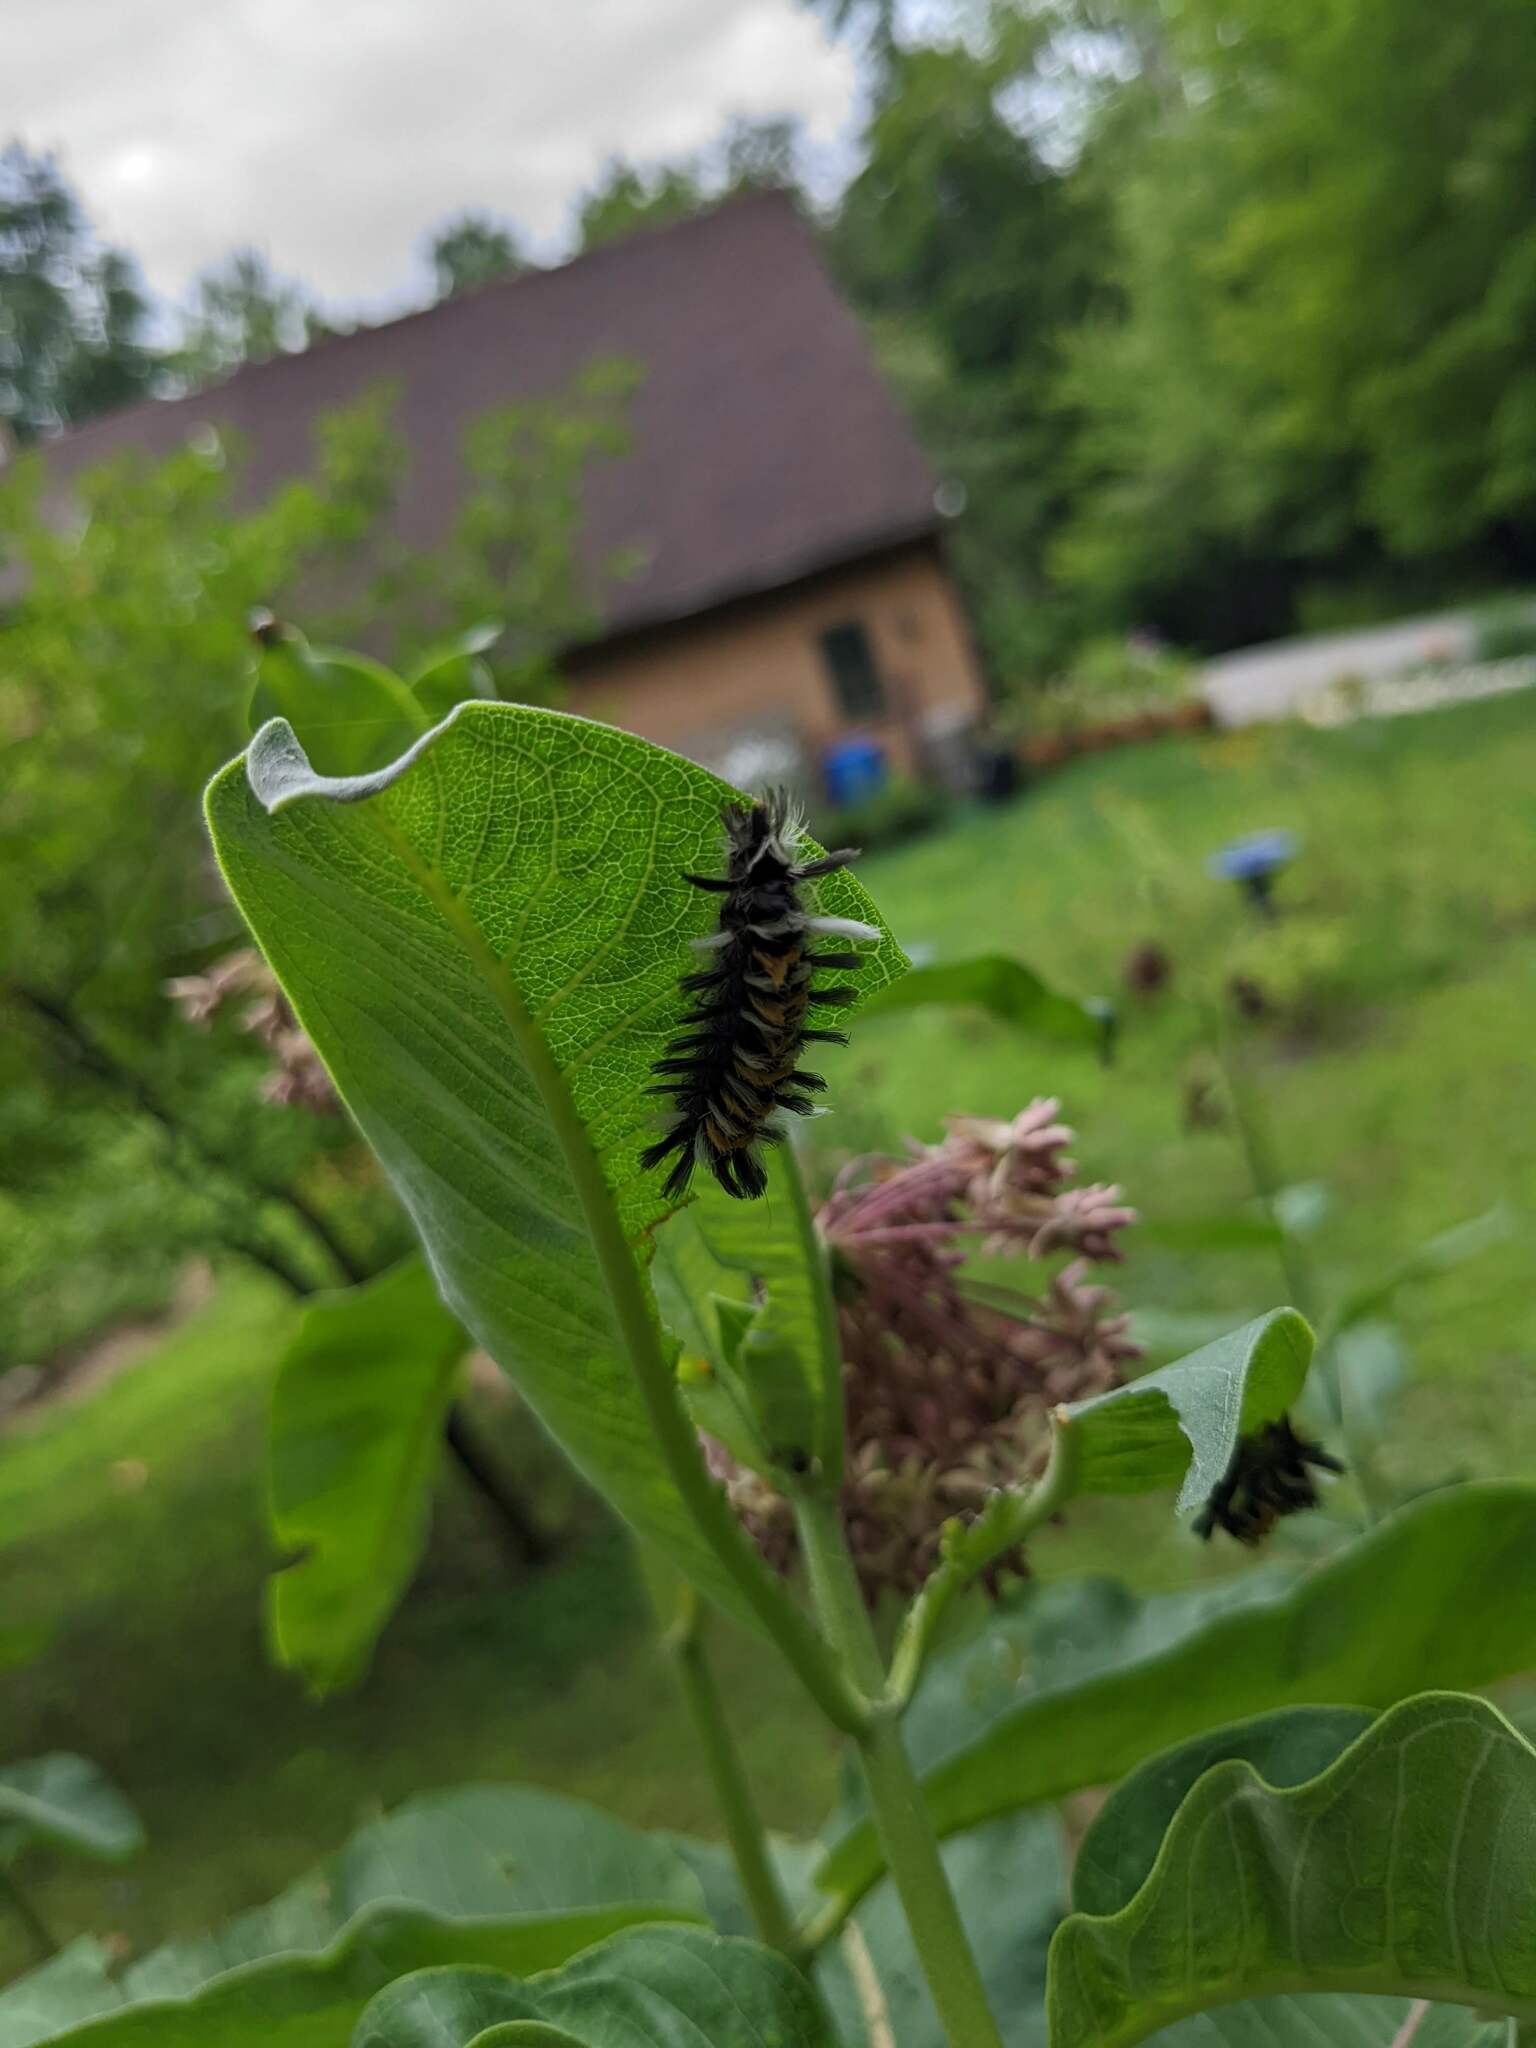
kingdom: Animalia
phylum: Arthropoda
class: Insecta
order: Lepidoptera
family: Erebidae
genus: Euchaetes
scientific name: Euchaetes egle
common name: Milkweed tussock moth
